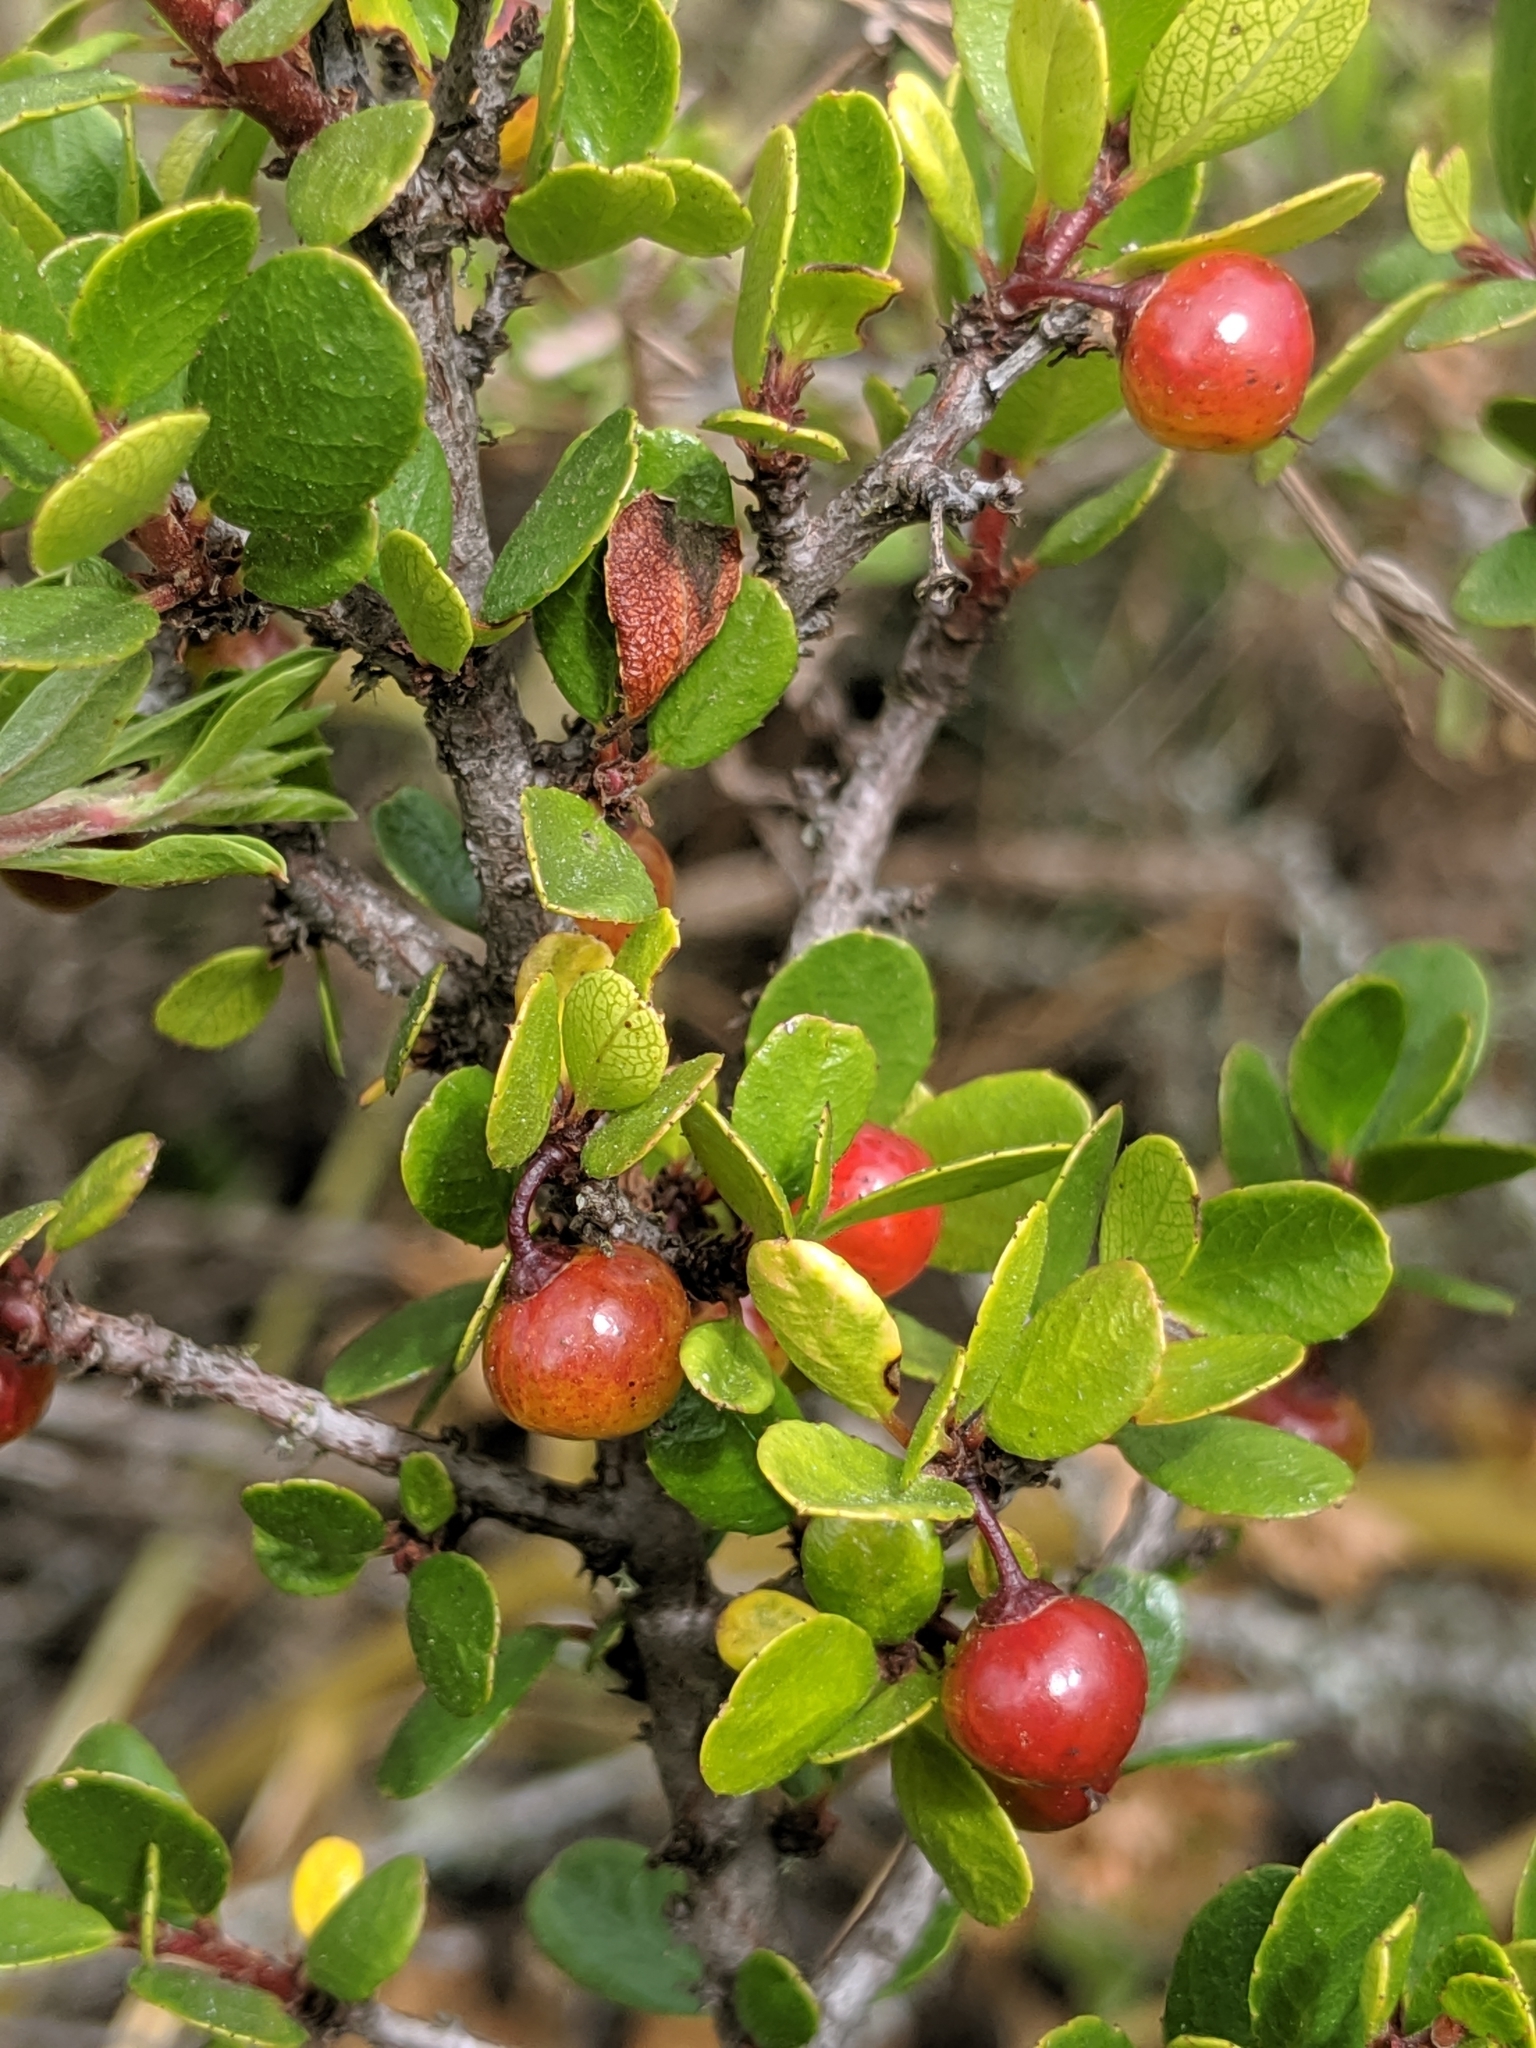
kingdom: Plantae
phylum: Tracheophyta
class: Magnoliopsida
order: Rosales
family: Rhamnaceae
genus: Endotropis
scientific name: Endotropis crocea
